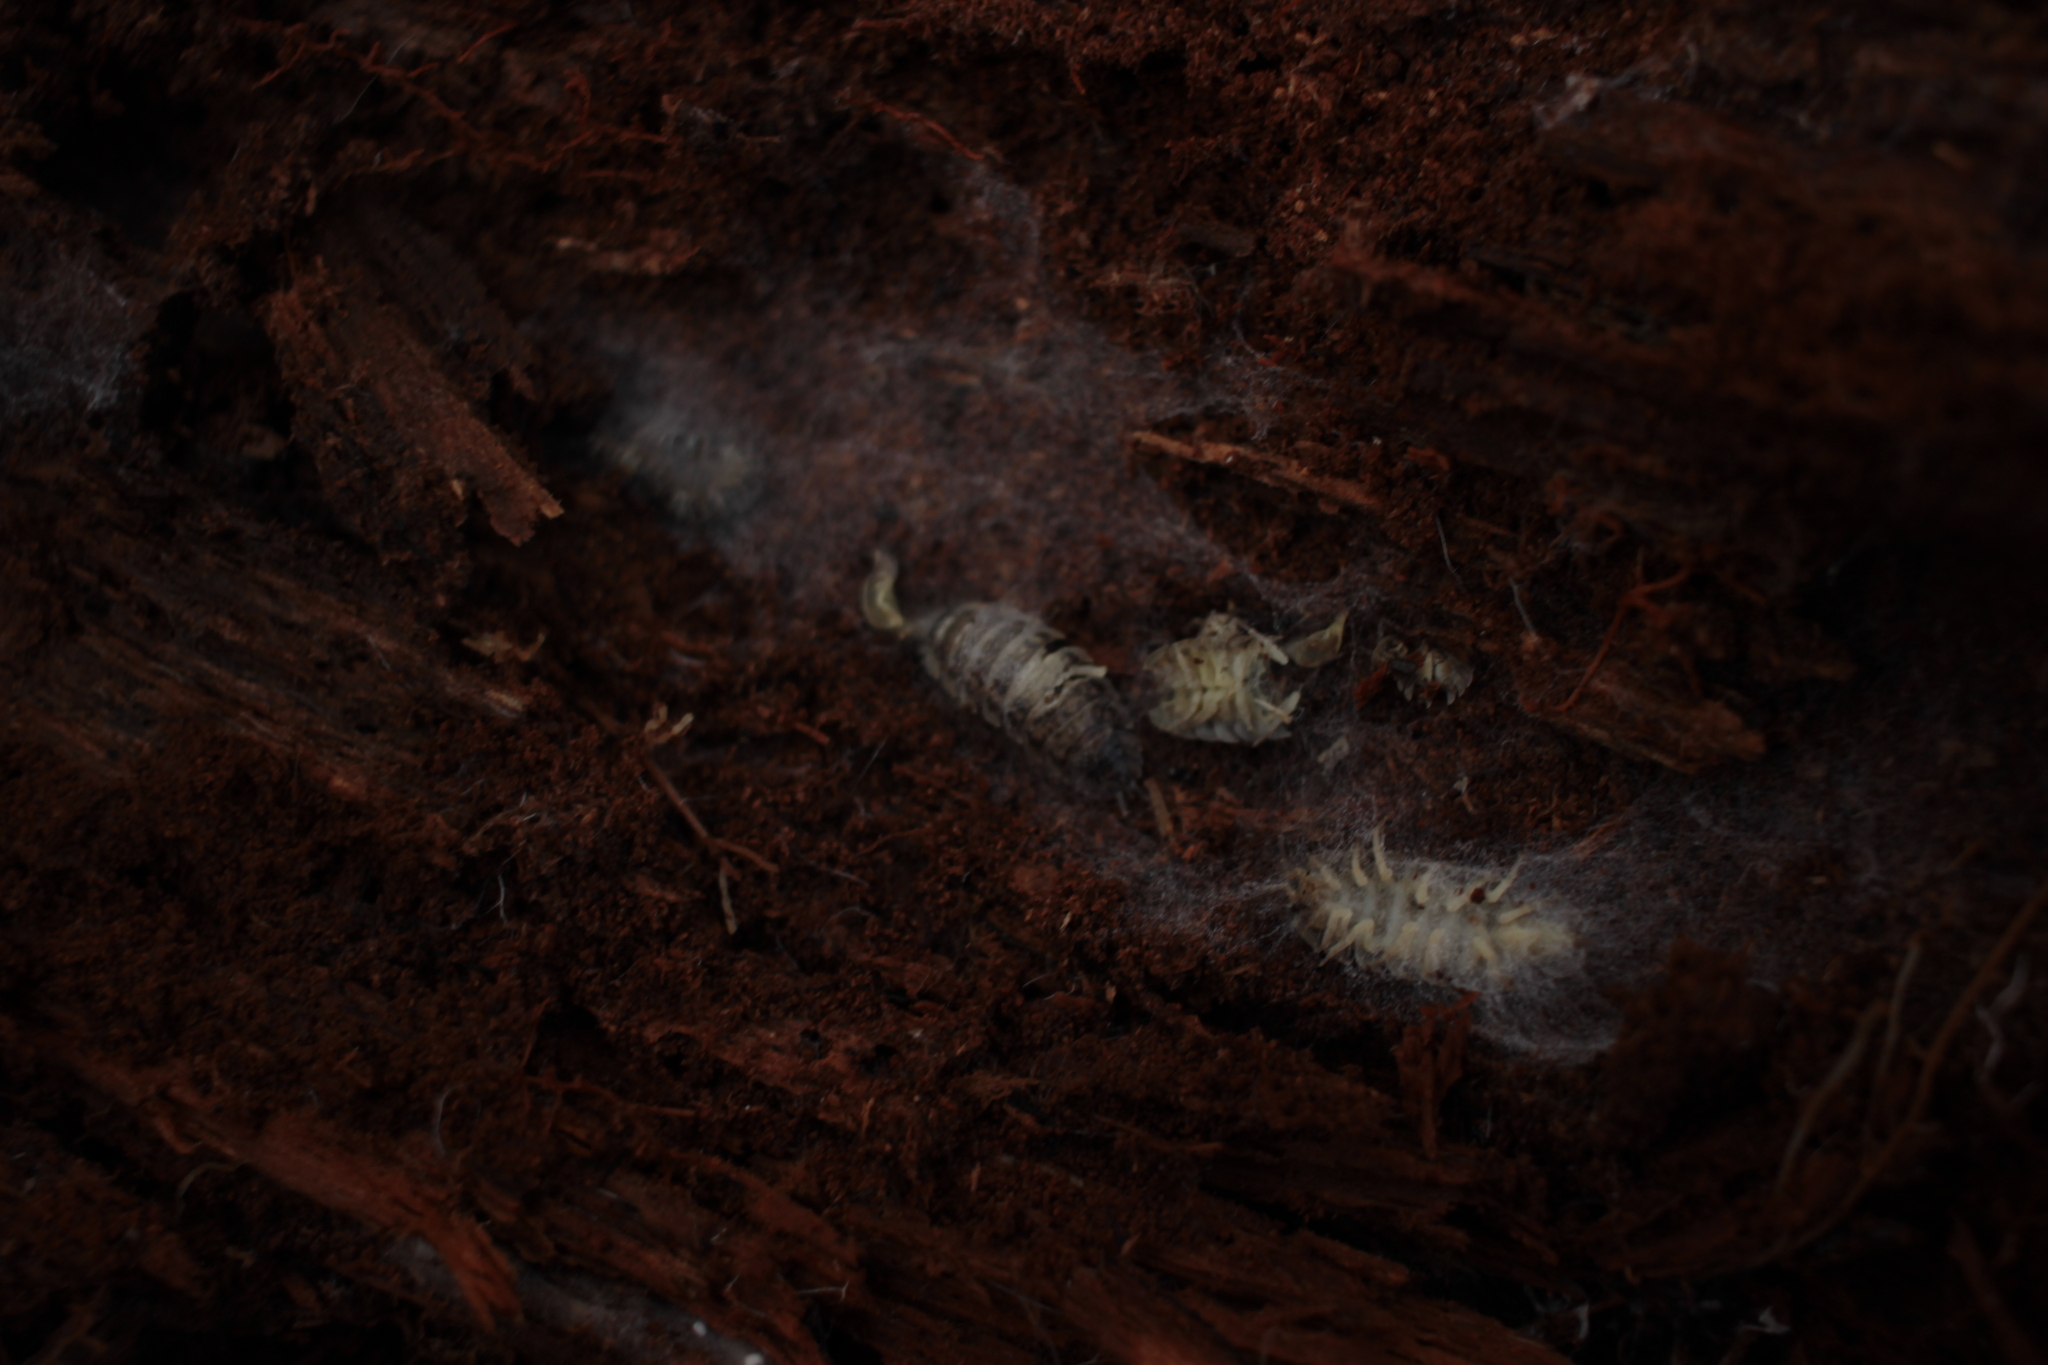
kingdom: Animalia
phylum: Arthropoda
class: Malacostraca
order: Isopoda
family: Oniscidae
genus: Oniscus
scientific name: Oniscus asellus
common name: Common shiny woodlouse
